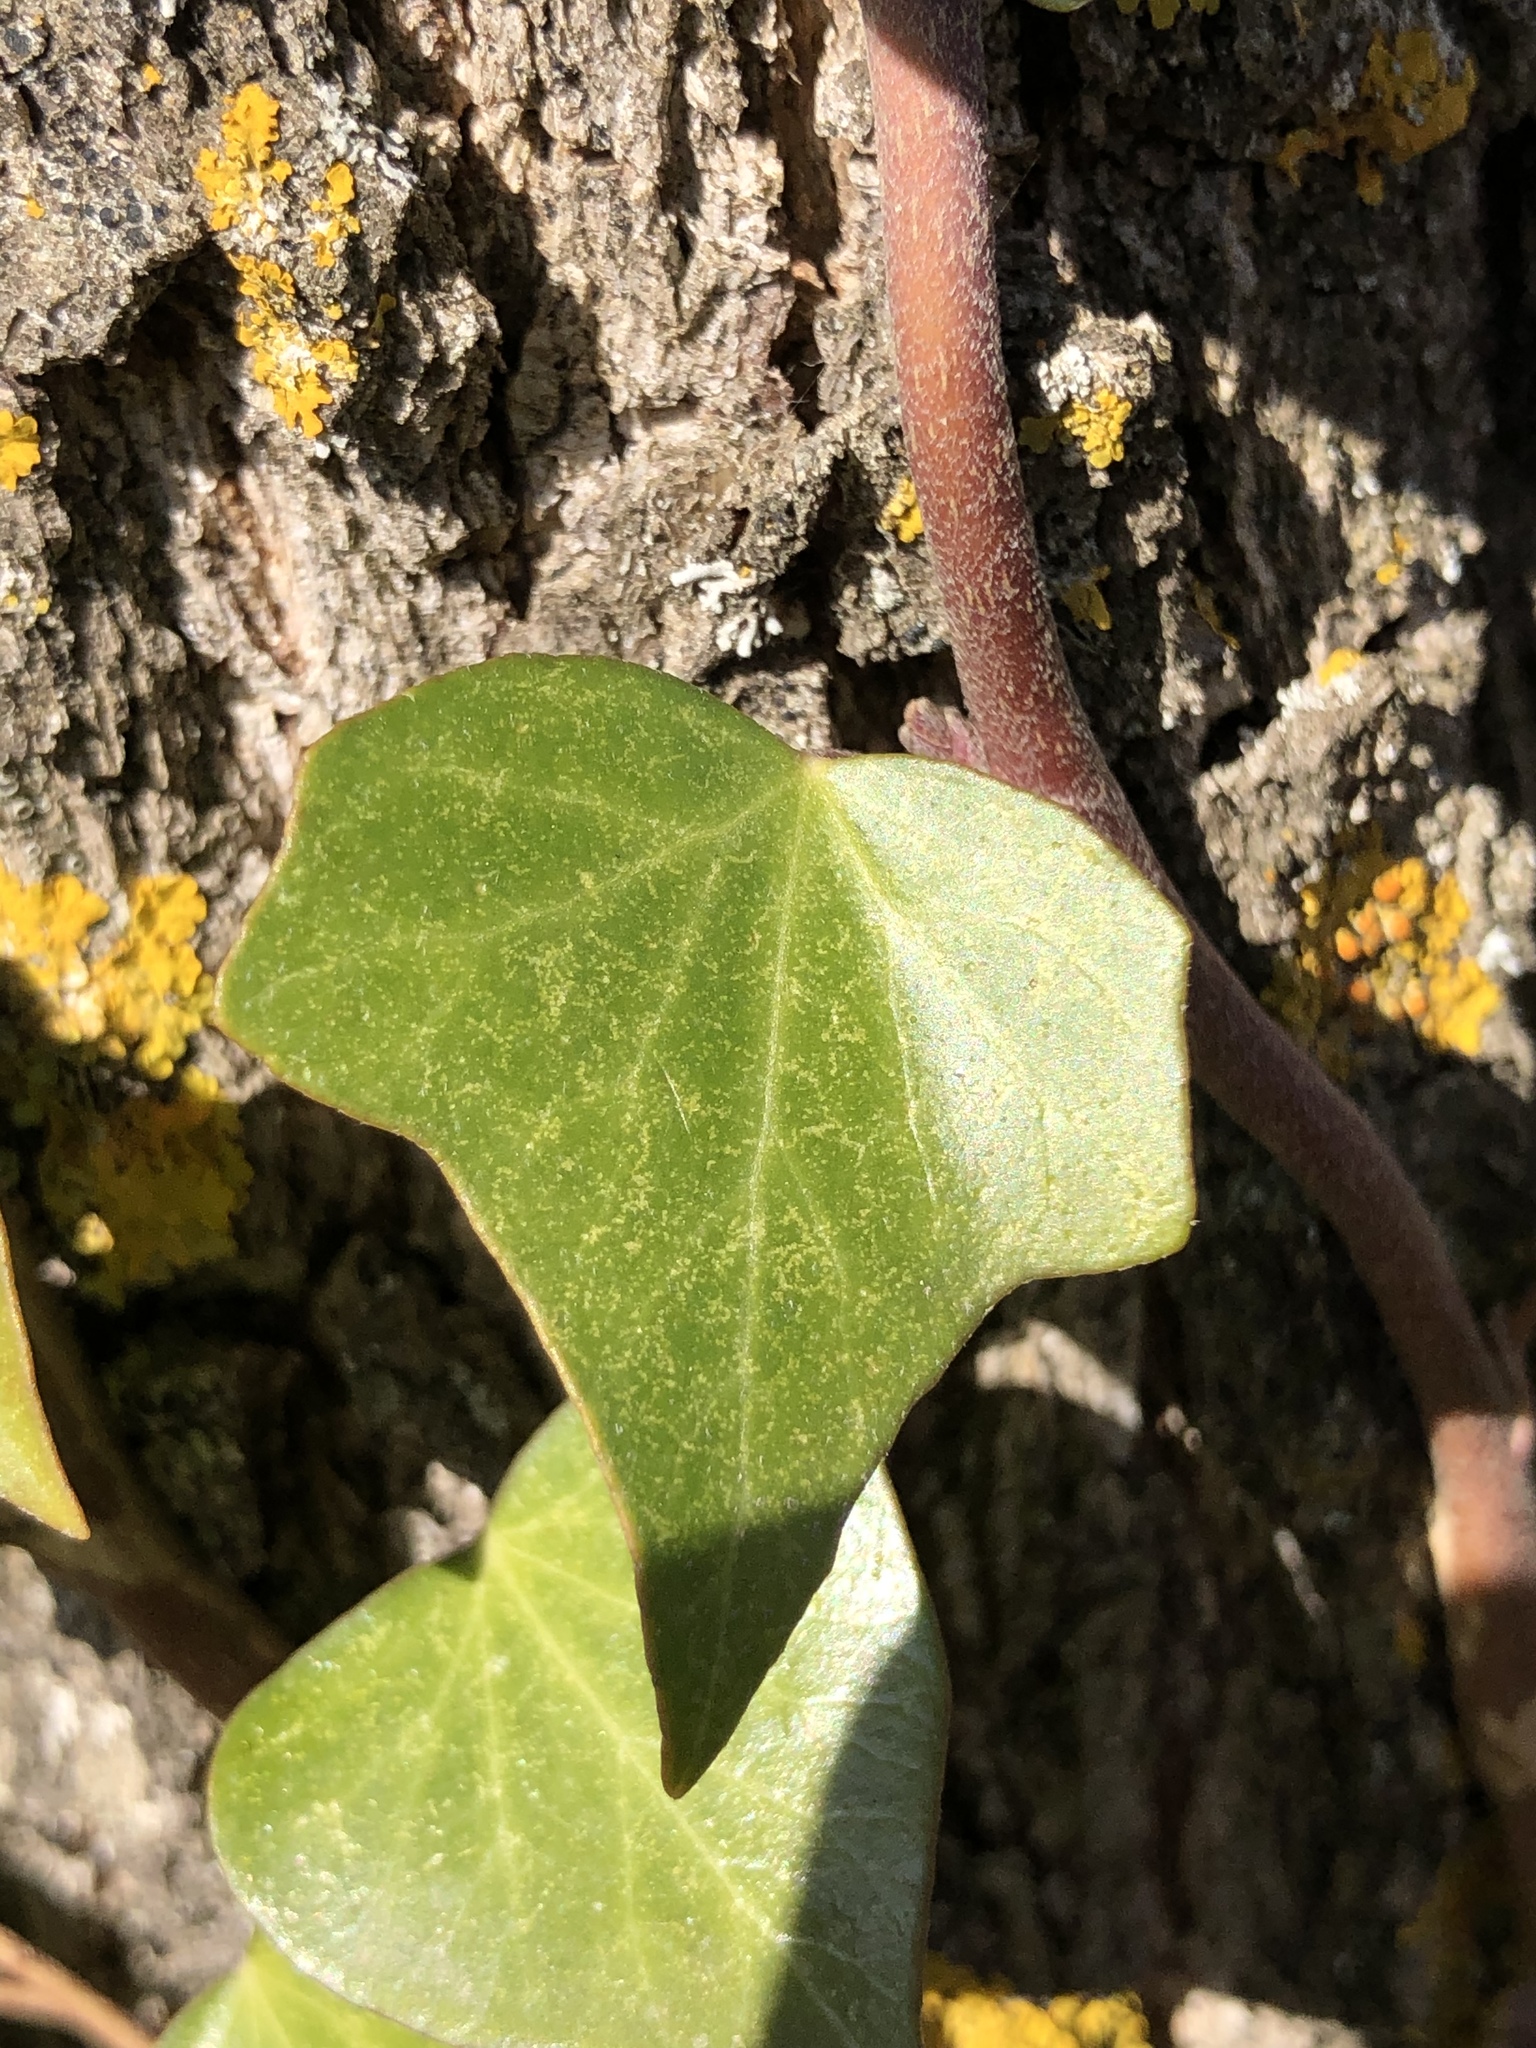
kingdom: Plantae
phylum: Tracheophyta
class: Magnoliopsida
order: Apiales
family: Araliaceae
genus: Hedera
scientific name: Hedera helix
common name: Ivy
